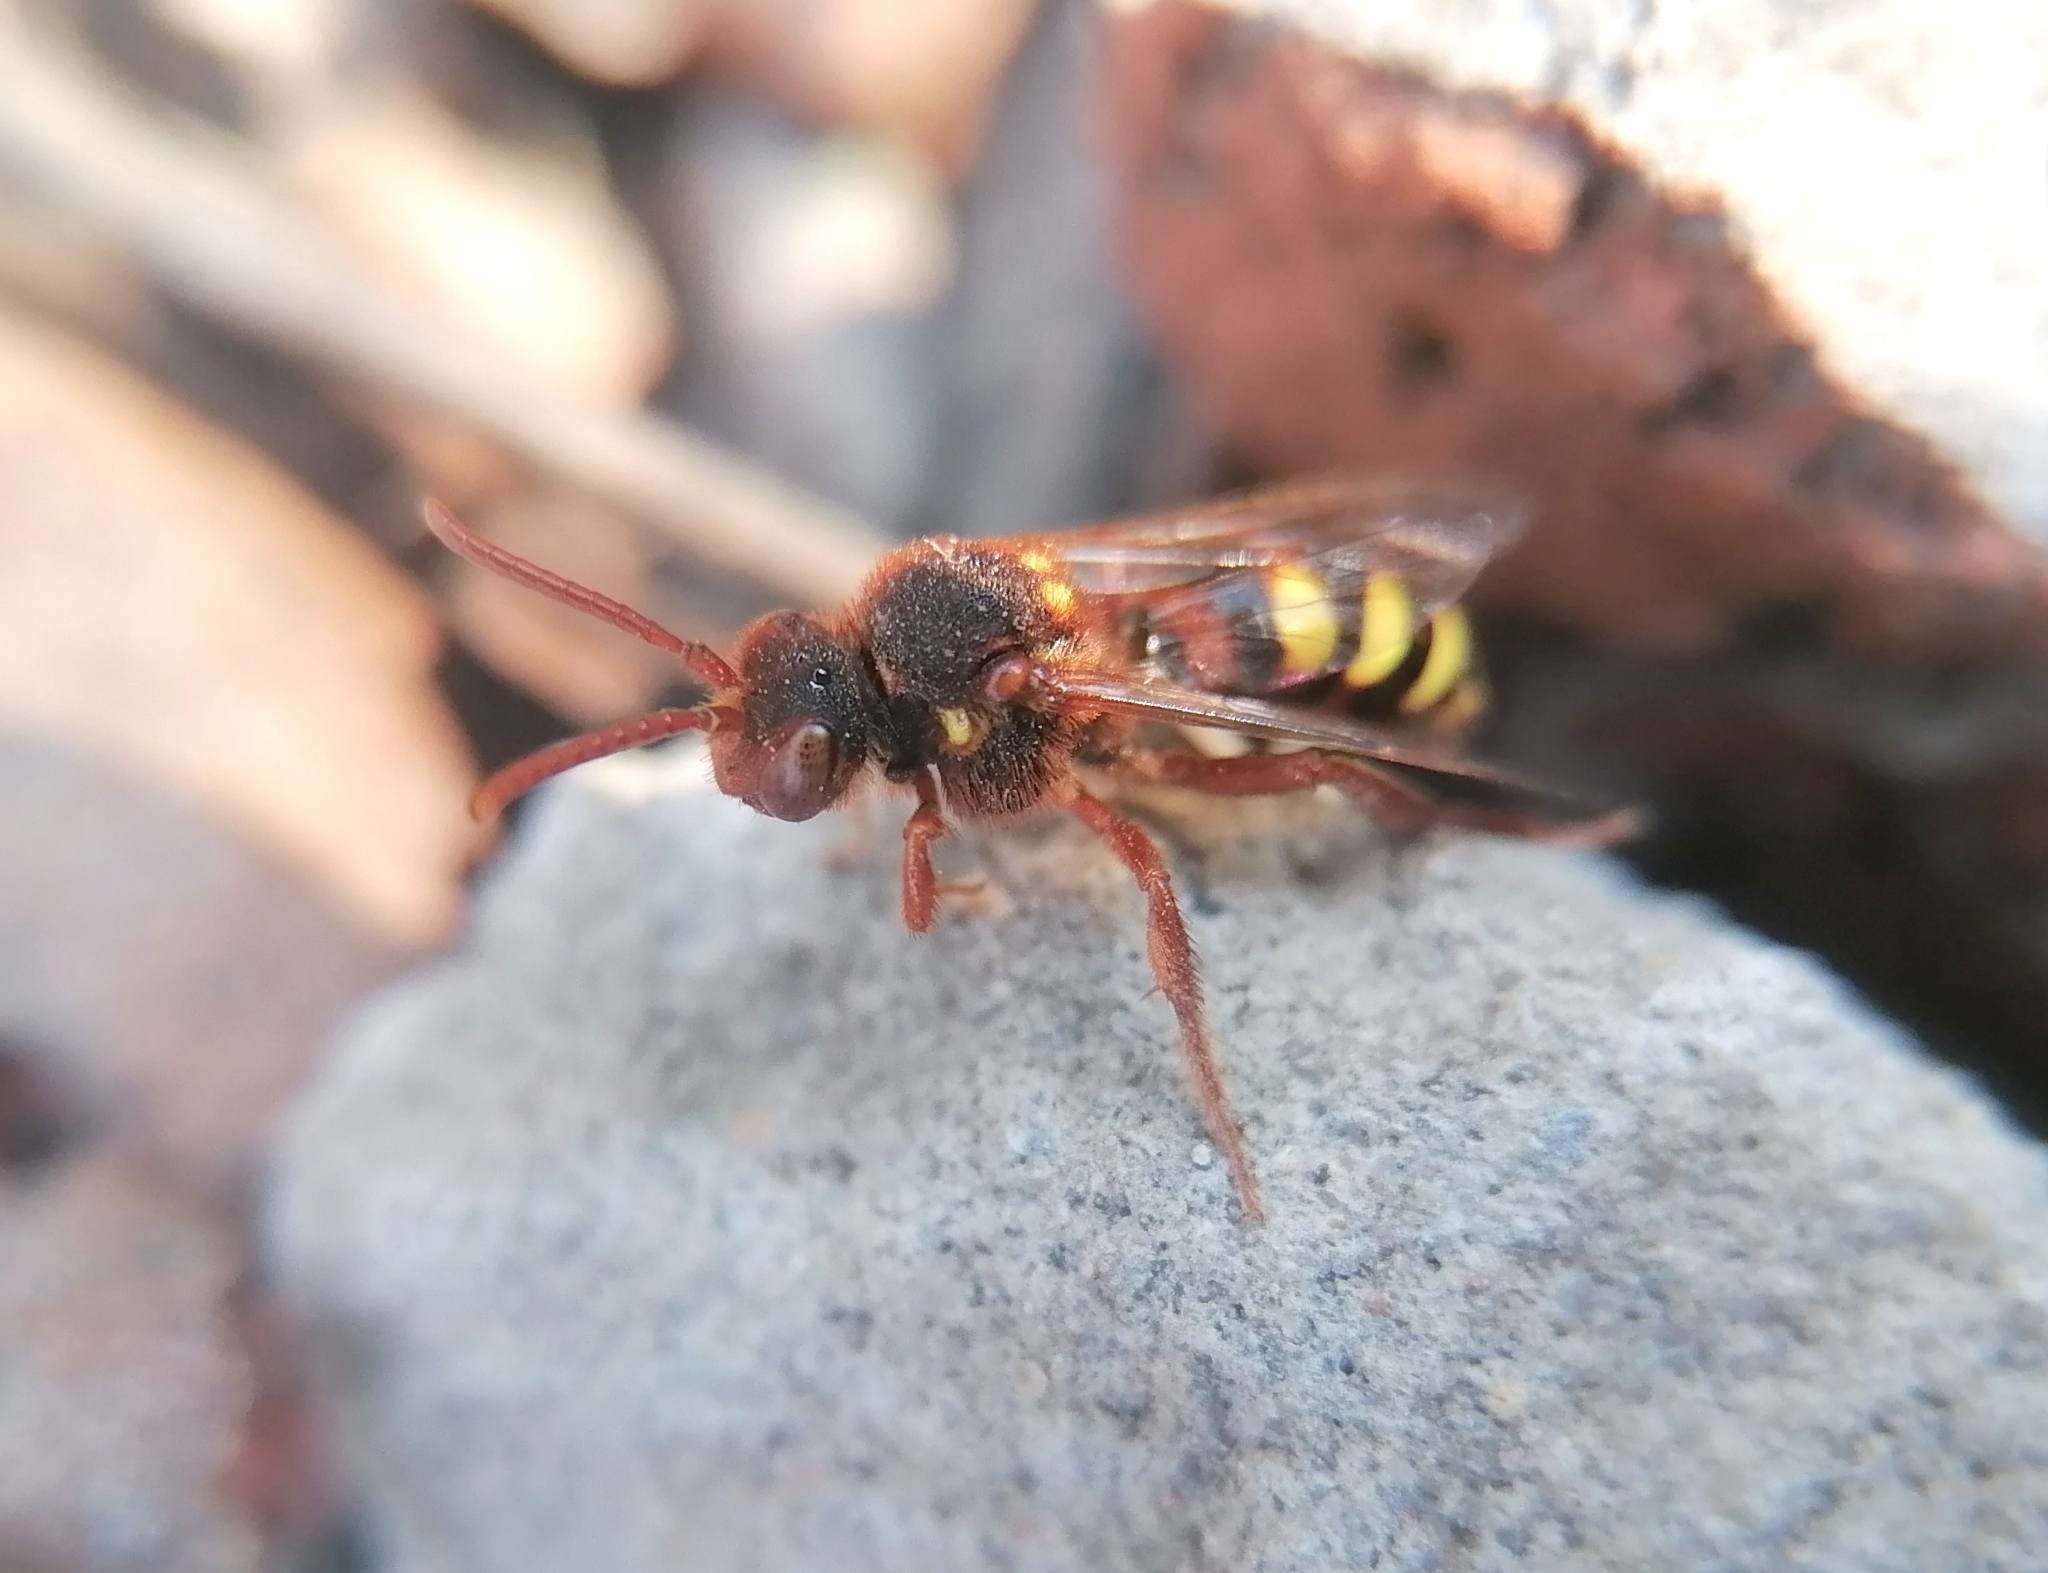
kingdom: Animalia
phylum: Arthropoda
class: Insecta
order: Hymenoptera
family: Apidae
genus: Nomada
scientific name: Nomada lathburiana
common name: Lathbury's nomad bee
